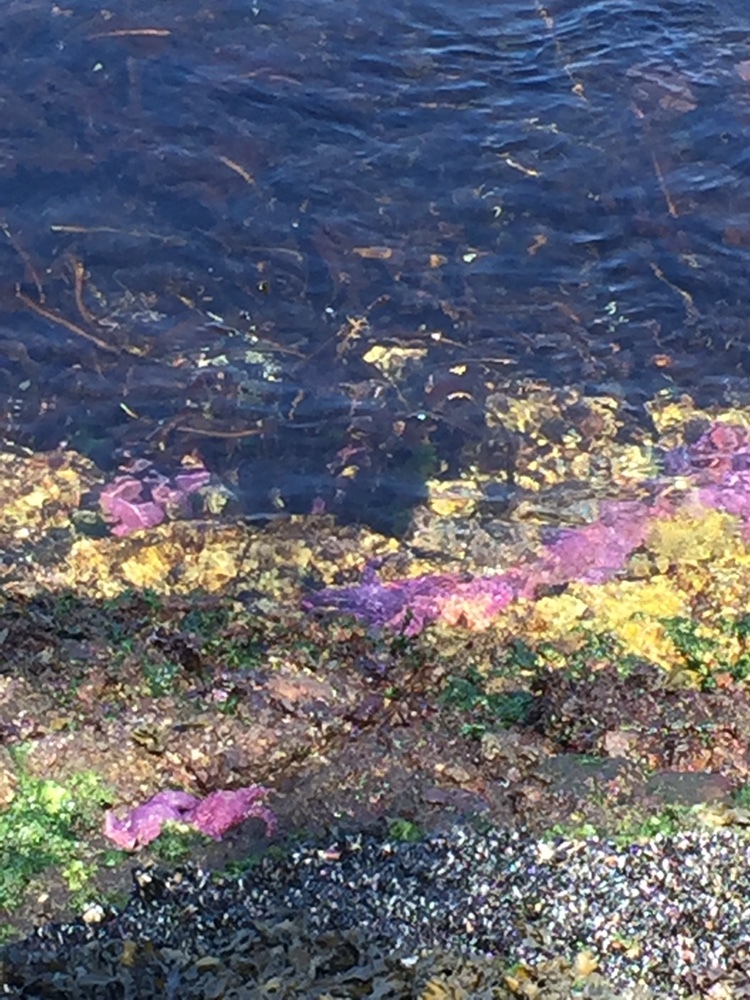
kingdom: Animalia
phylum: Echinodermata
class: Asteroidea
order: Forcipulatida
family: Asteriidae
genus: Pisaster
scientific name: Pisaster ochraceus
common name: Ochre stars
